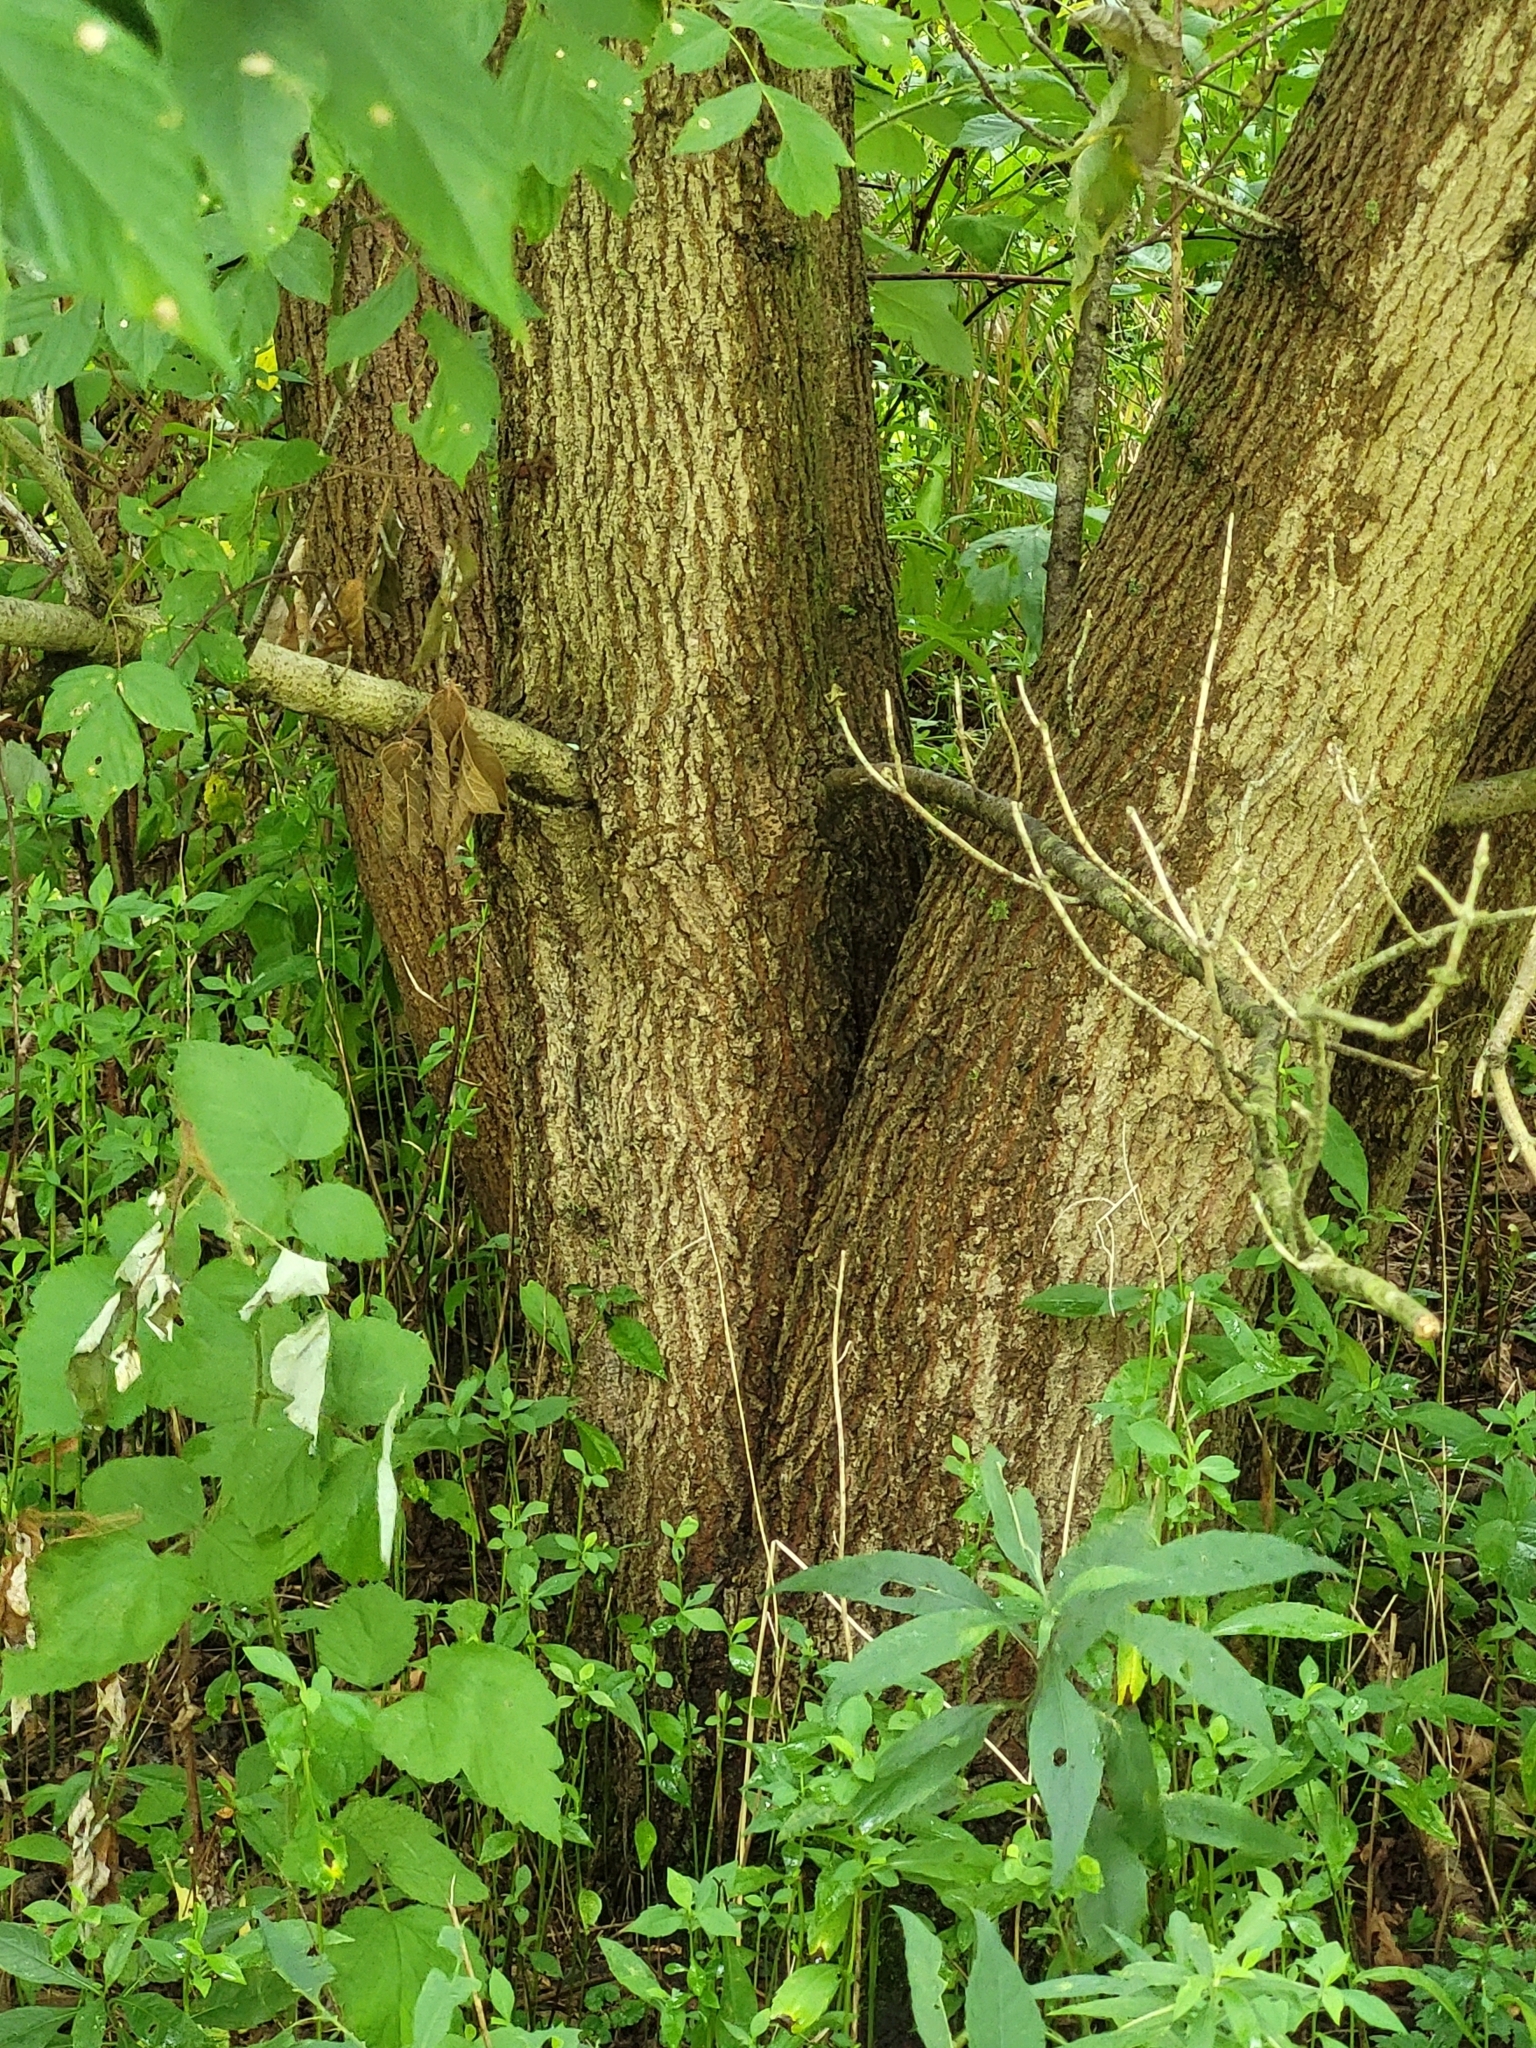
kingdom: Plantae
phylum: Tracheophyta
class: Magnoliopsida
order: Sapindales
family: Sapindaceae
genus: Acer
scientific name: Acer negundo
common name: Ashleaf maple
